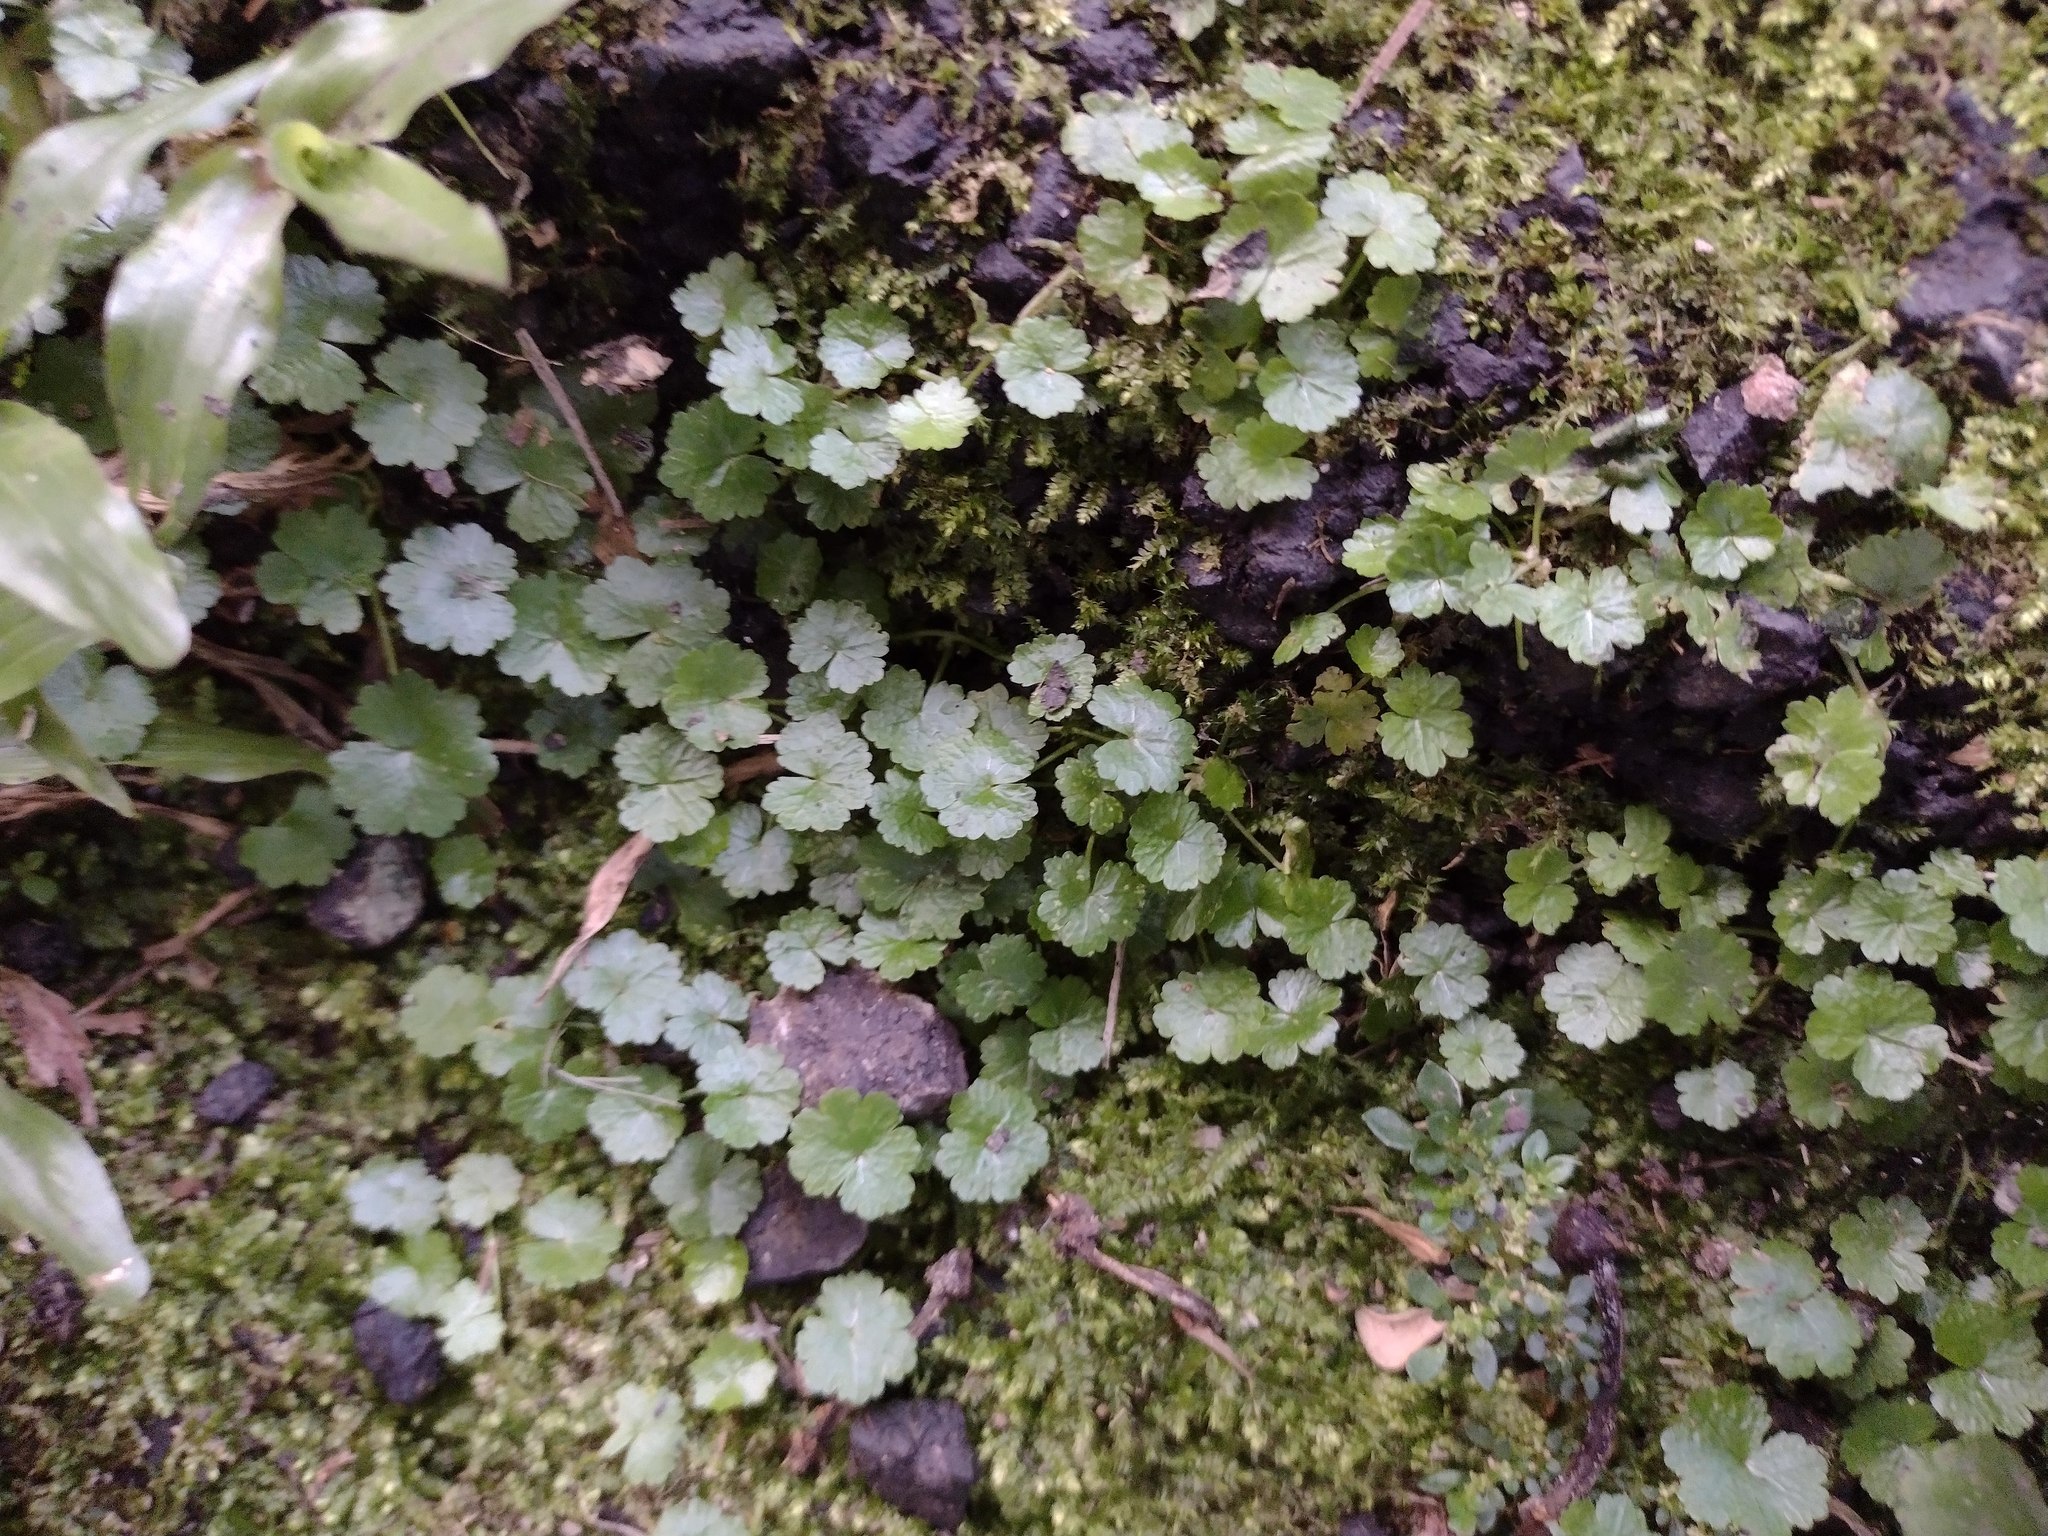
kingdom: Plantae
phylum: Tracheophyta
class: Magnoliopsida
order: Apiales
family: Araliaceae
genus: Hydrocotyle
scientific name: Hydrocotyle sibthorpioides
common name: Lawn marshpennywort
